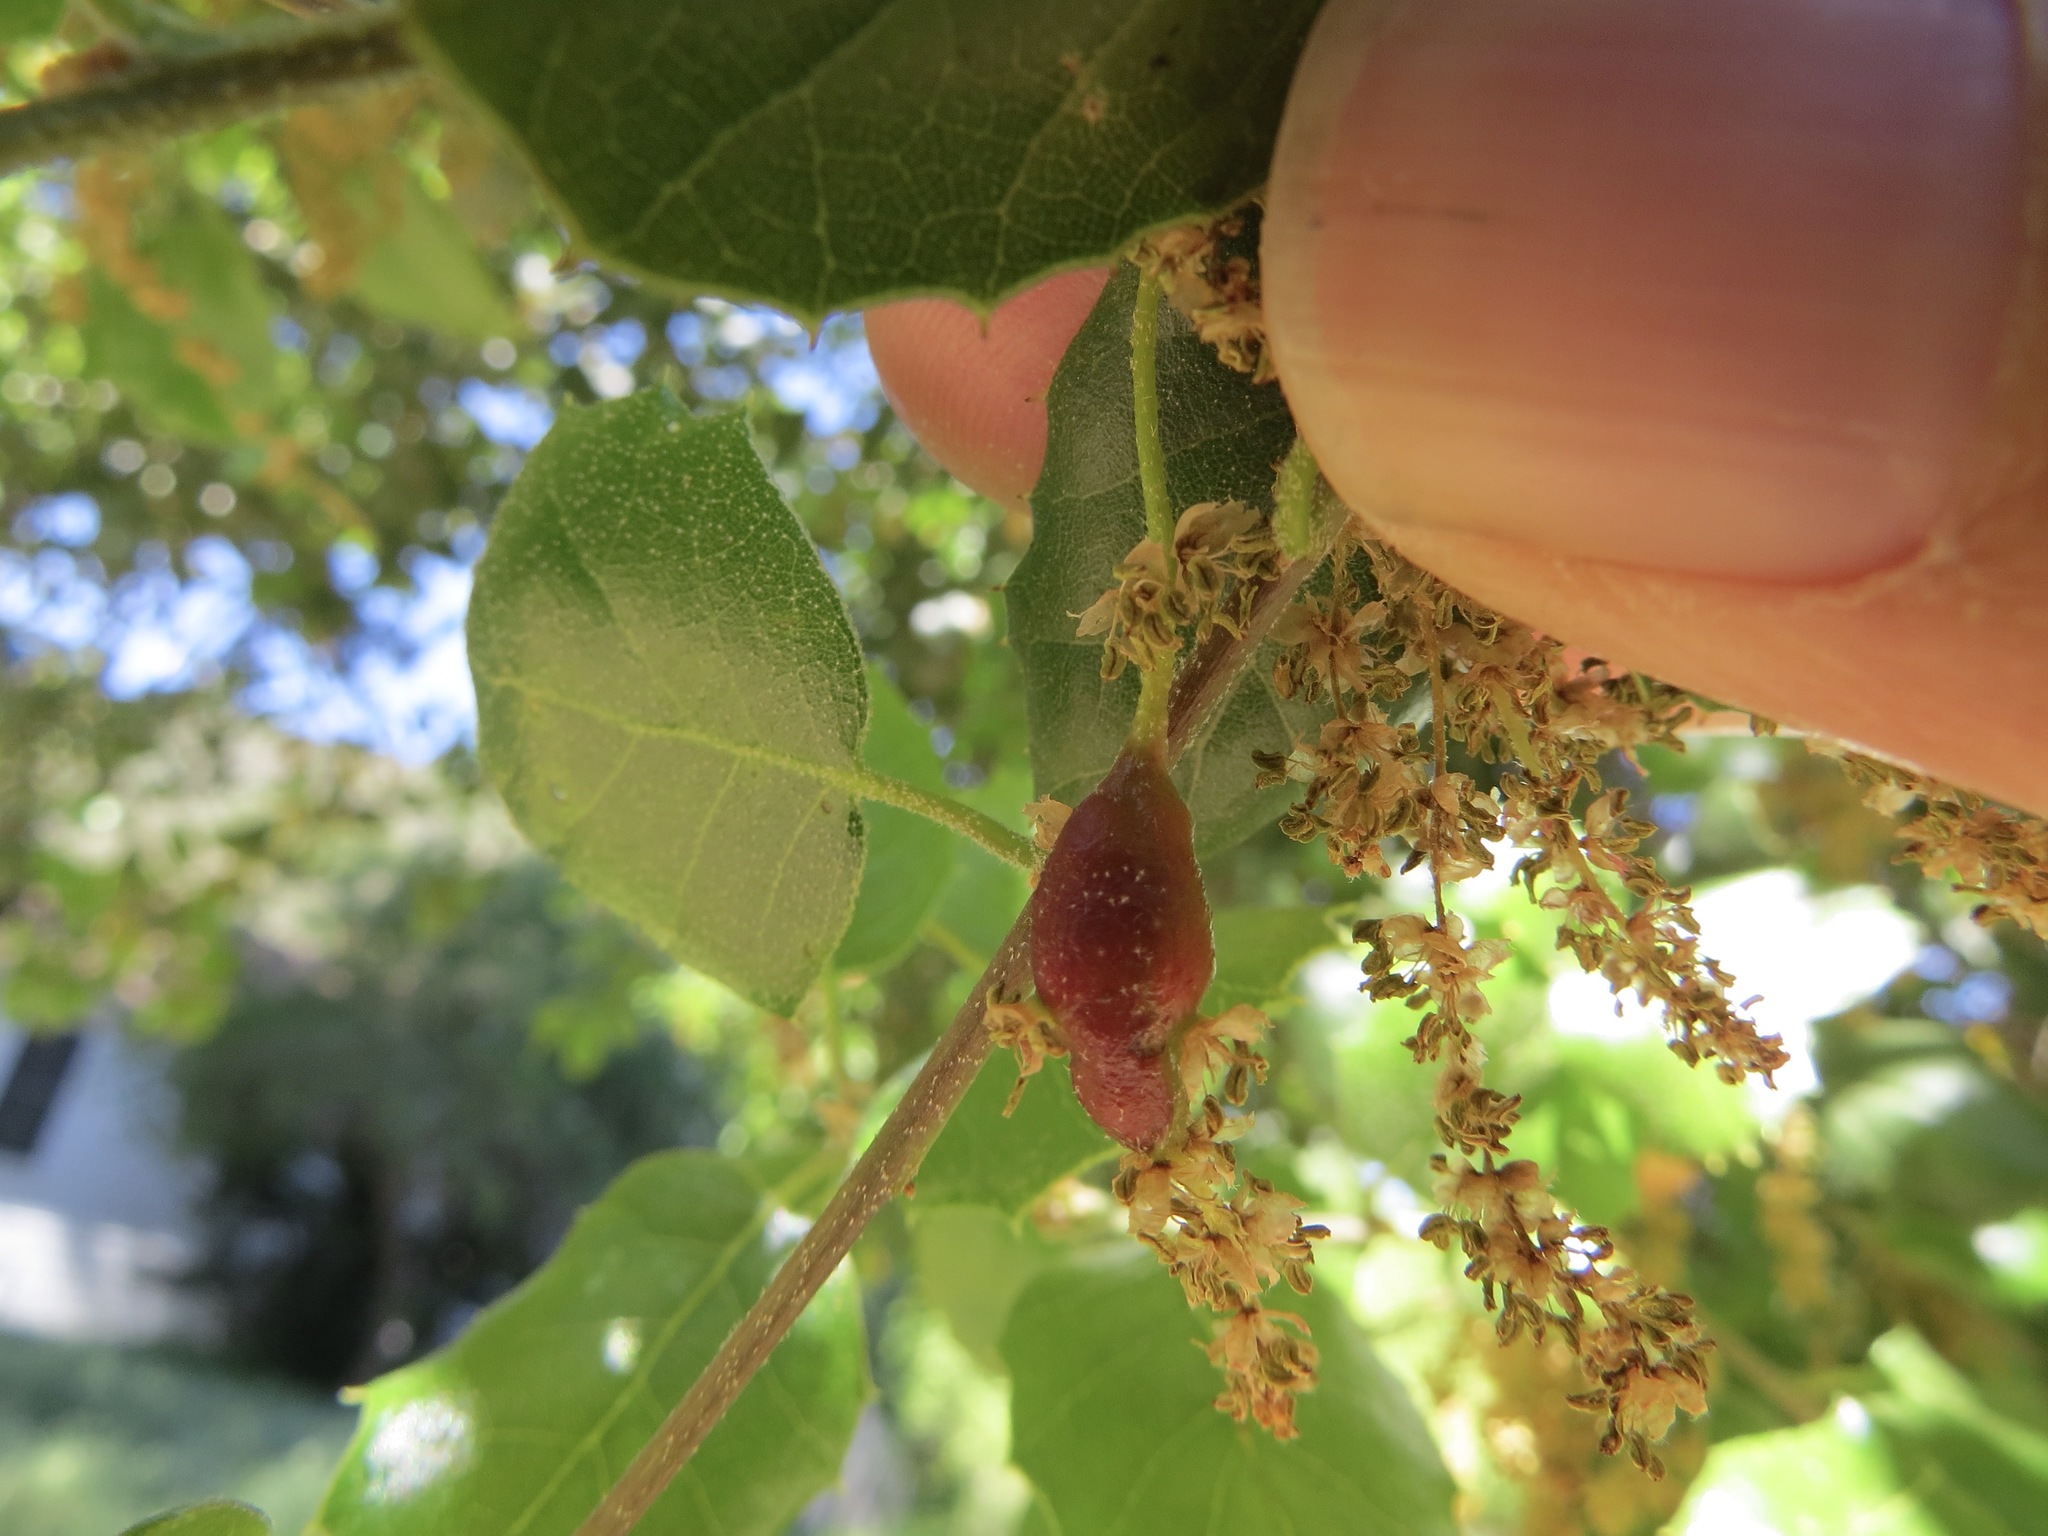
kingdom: Animalia
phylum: Arthropoda
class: Insecta
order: Hymenoptera
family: Cynipidae
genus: Callirhytis
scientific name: Callirhytis
